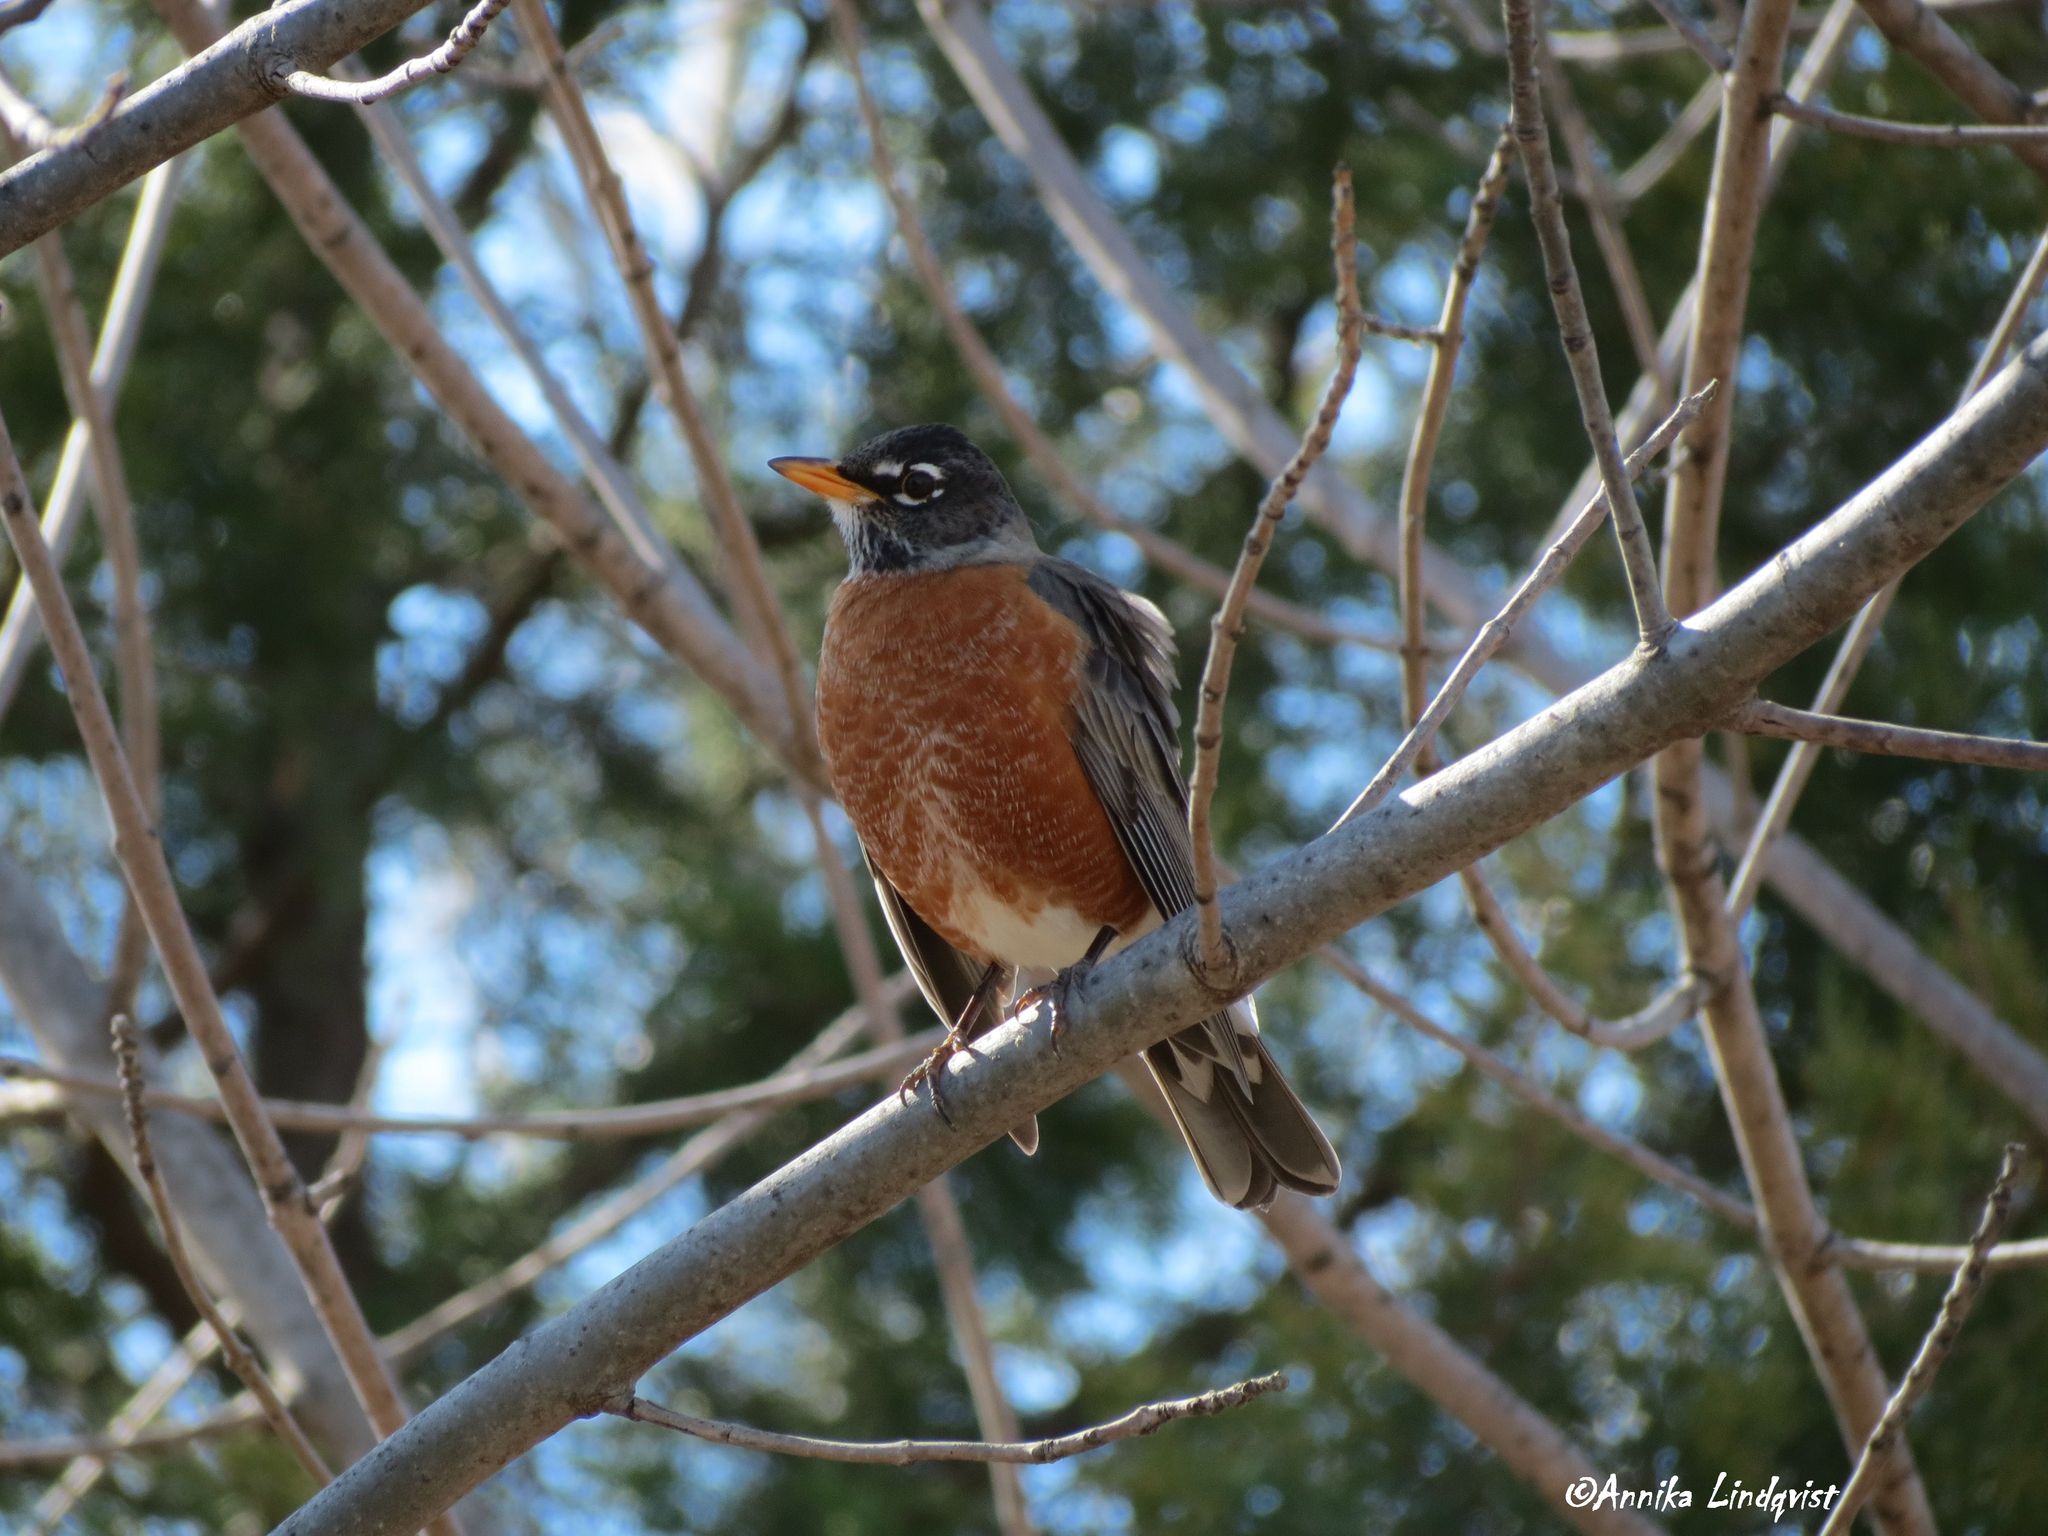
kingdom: Animalia
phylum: Chordata
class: Aves
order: Passeriformes
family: Turdidae
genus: Turdus
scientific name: Turdus migratorius
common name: American robin
